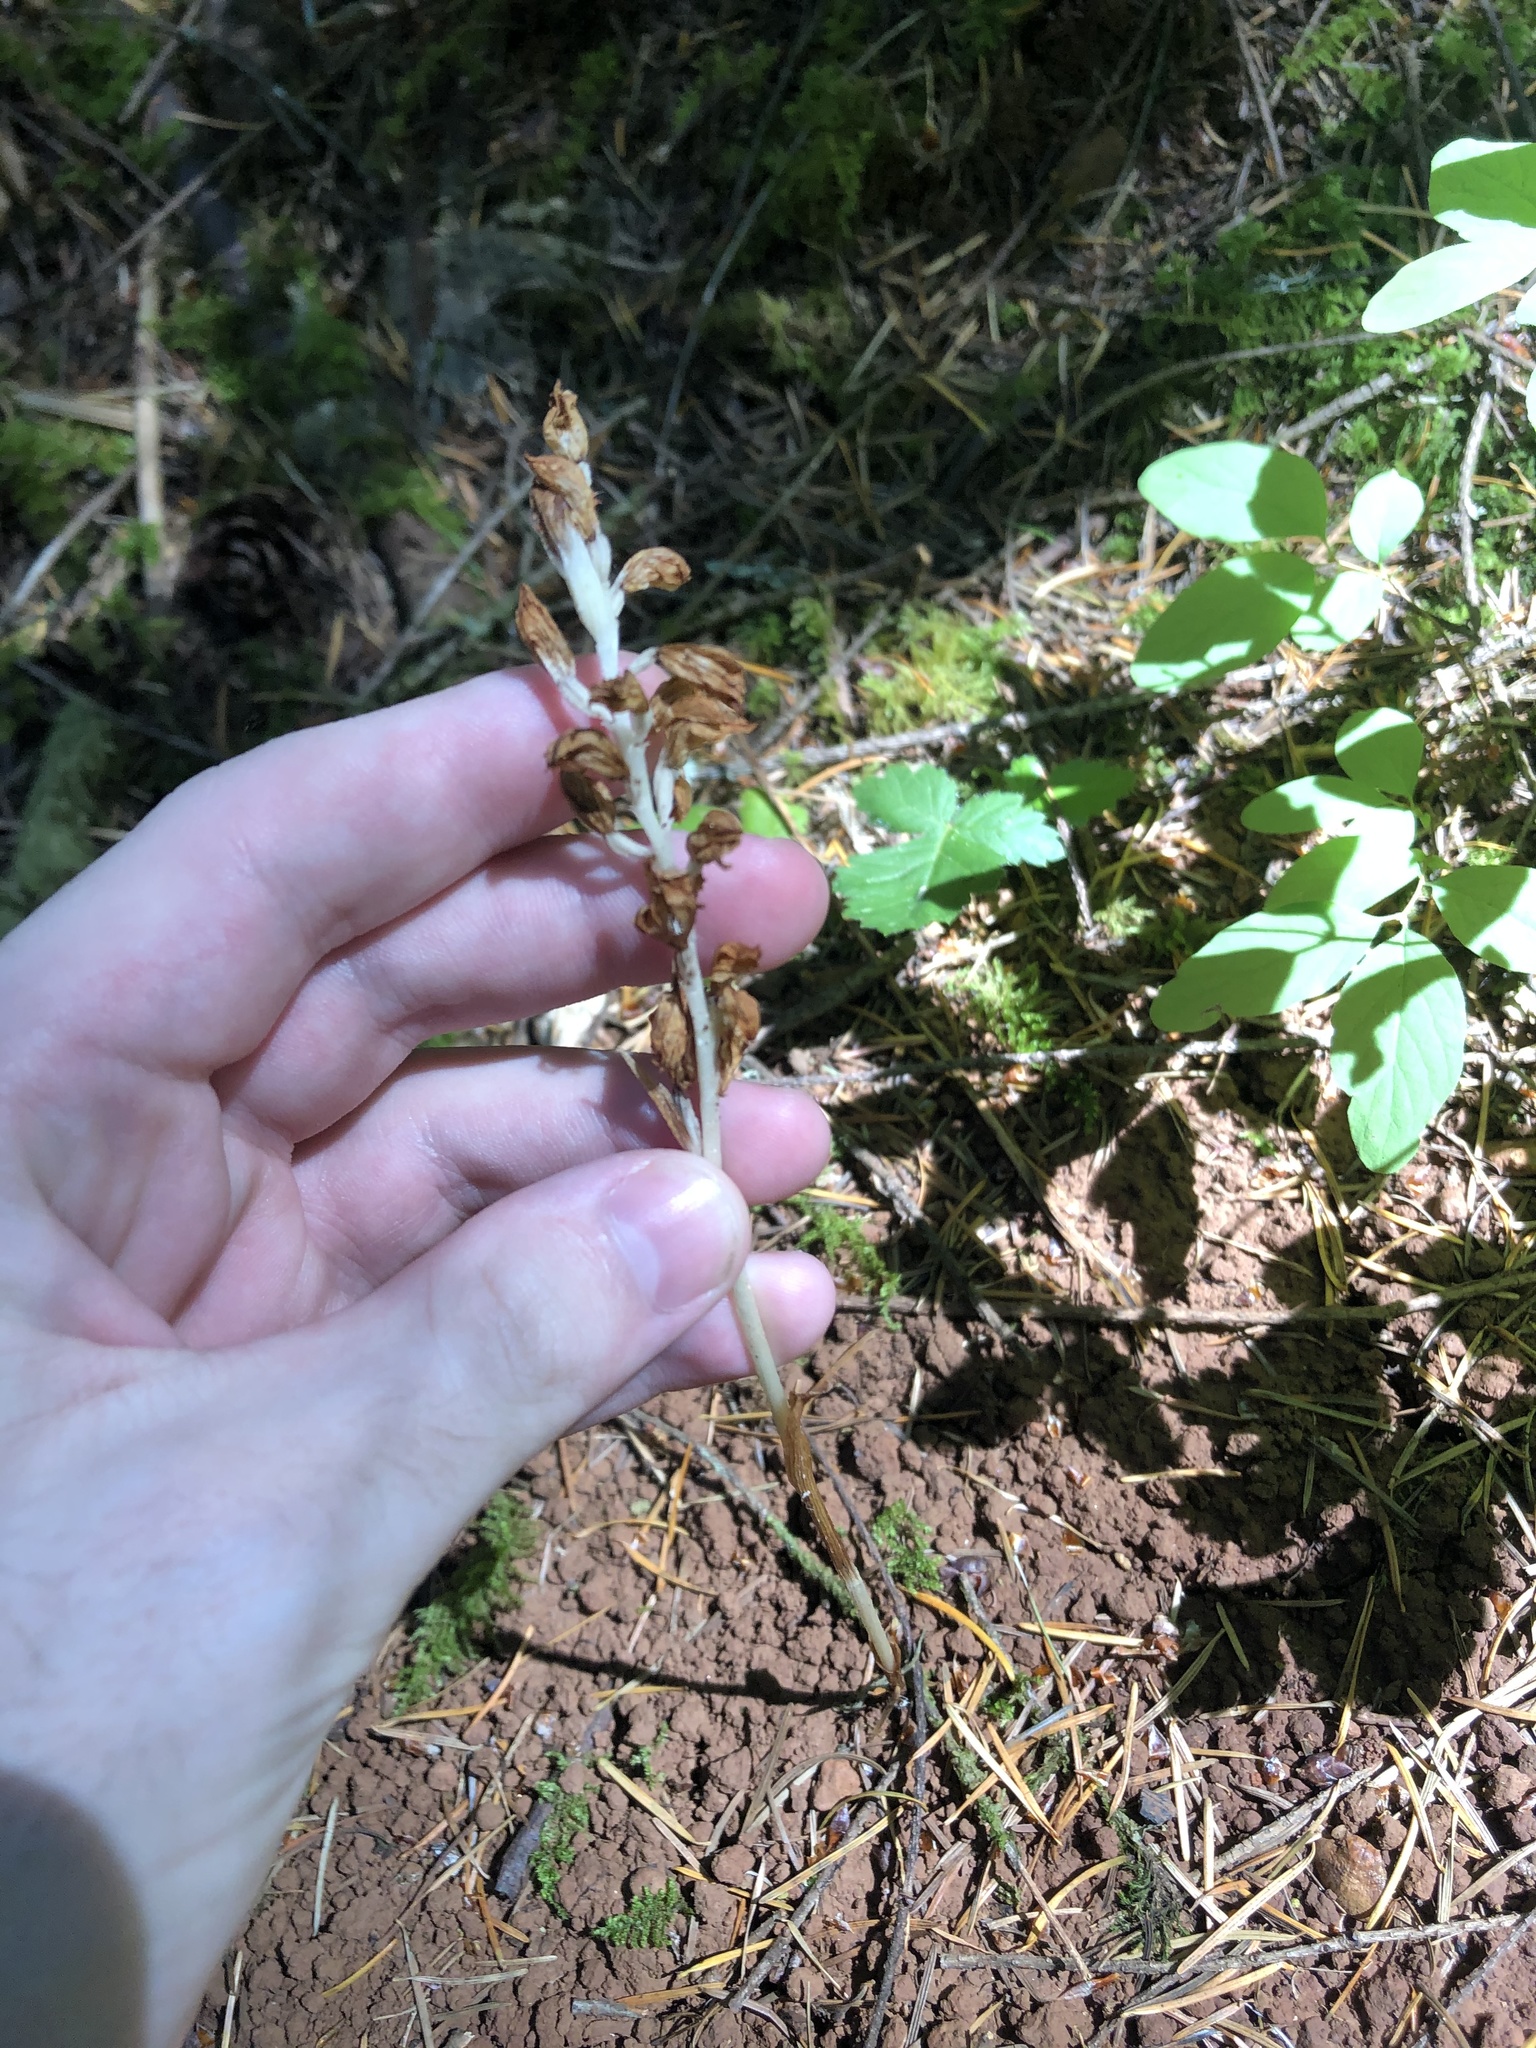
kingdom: Plantae
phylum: Tracheophyta
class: Liliopsida
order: Asparagales
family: Orchidaceae
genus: Cephalanthera
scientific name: Cephalanthera austiniae
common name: Phantom orchid
